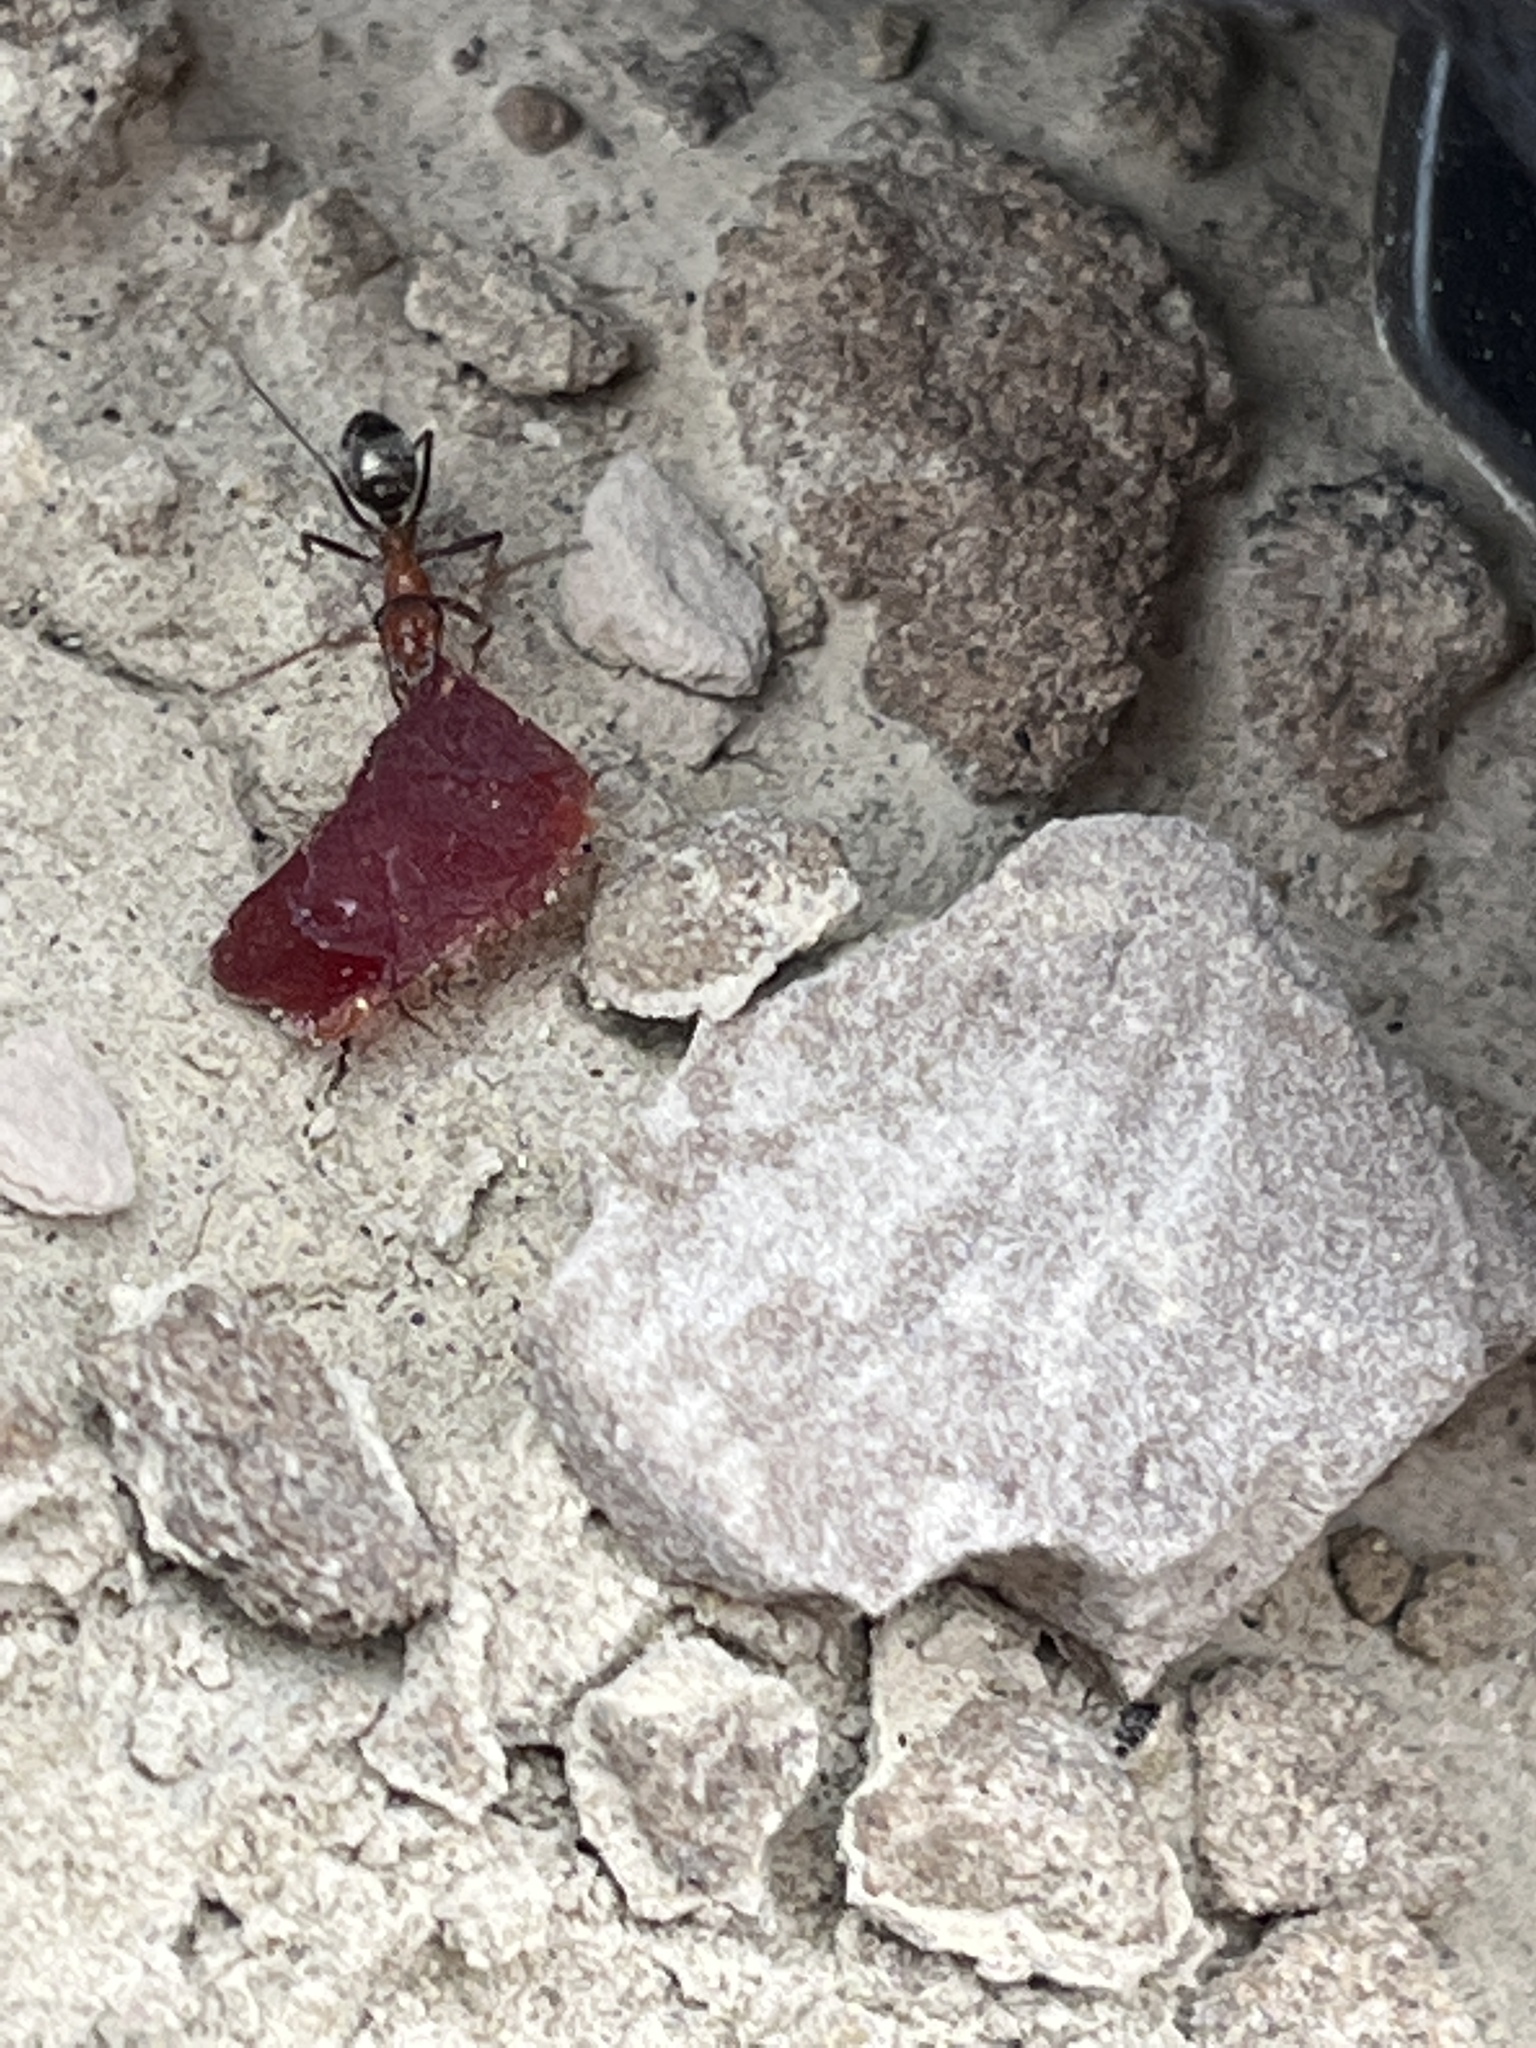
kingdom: Animalia
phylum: Arthropoda
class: Insecta
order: Hymenoptera
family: Formicidae
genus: Formica
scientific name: Formica obtusopilosa
